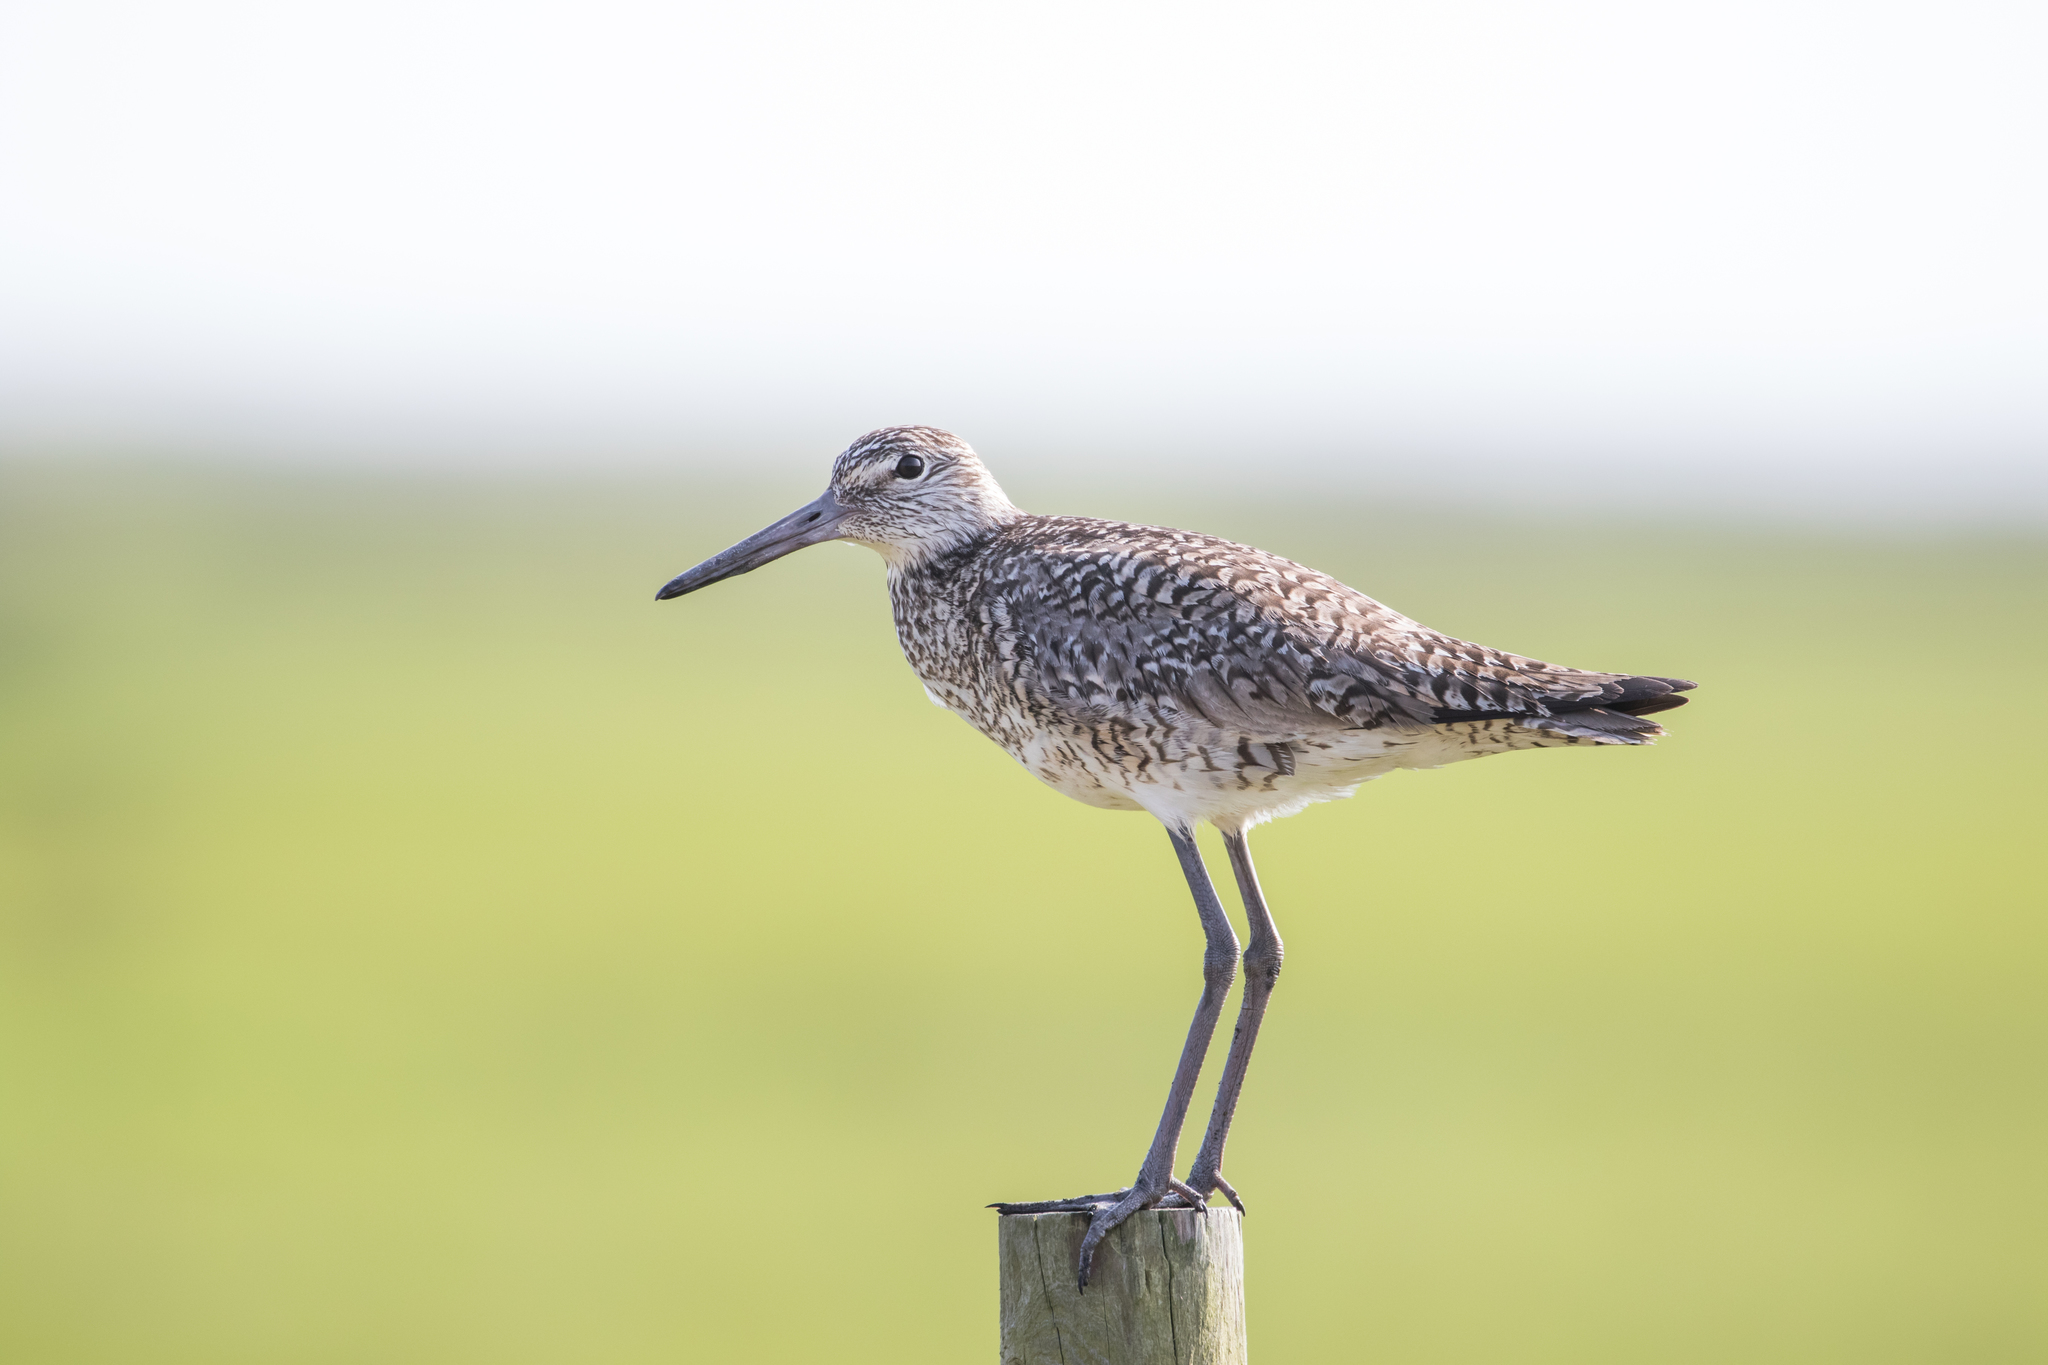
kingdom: Animalia
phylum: Chordata
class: Aves
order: Charadriiformes
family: Scolopacidae
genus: Tringa
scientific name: Tringa semipalmata
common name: Willet
